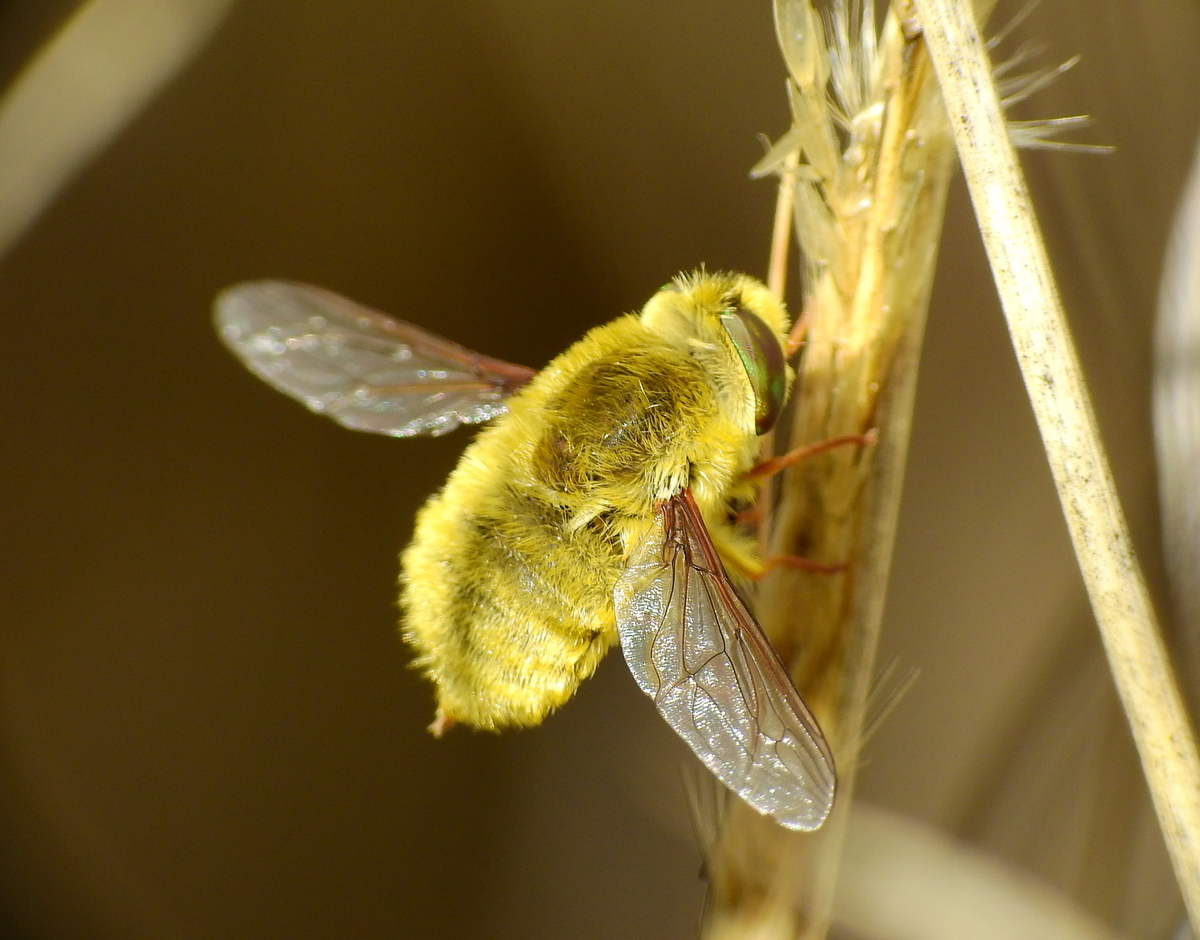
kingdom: Animalia
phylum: Arthropoda
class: Insecta
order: Diptera
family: Nemestrinidae
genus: Neorhynchocephalus
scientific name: Neorhynchocephalus sulphureus
